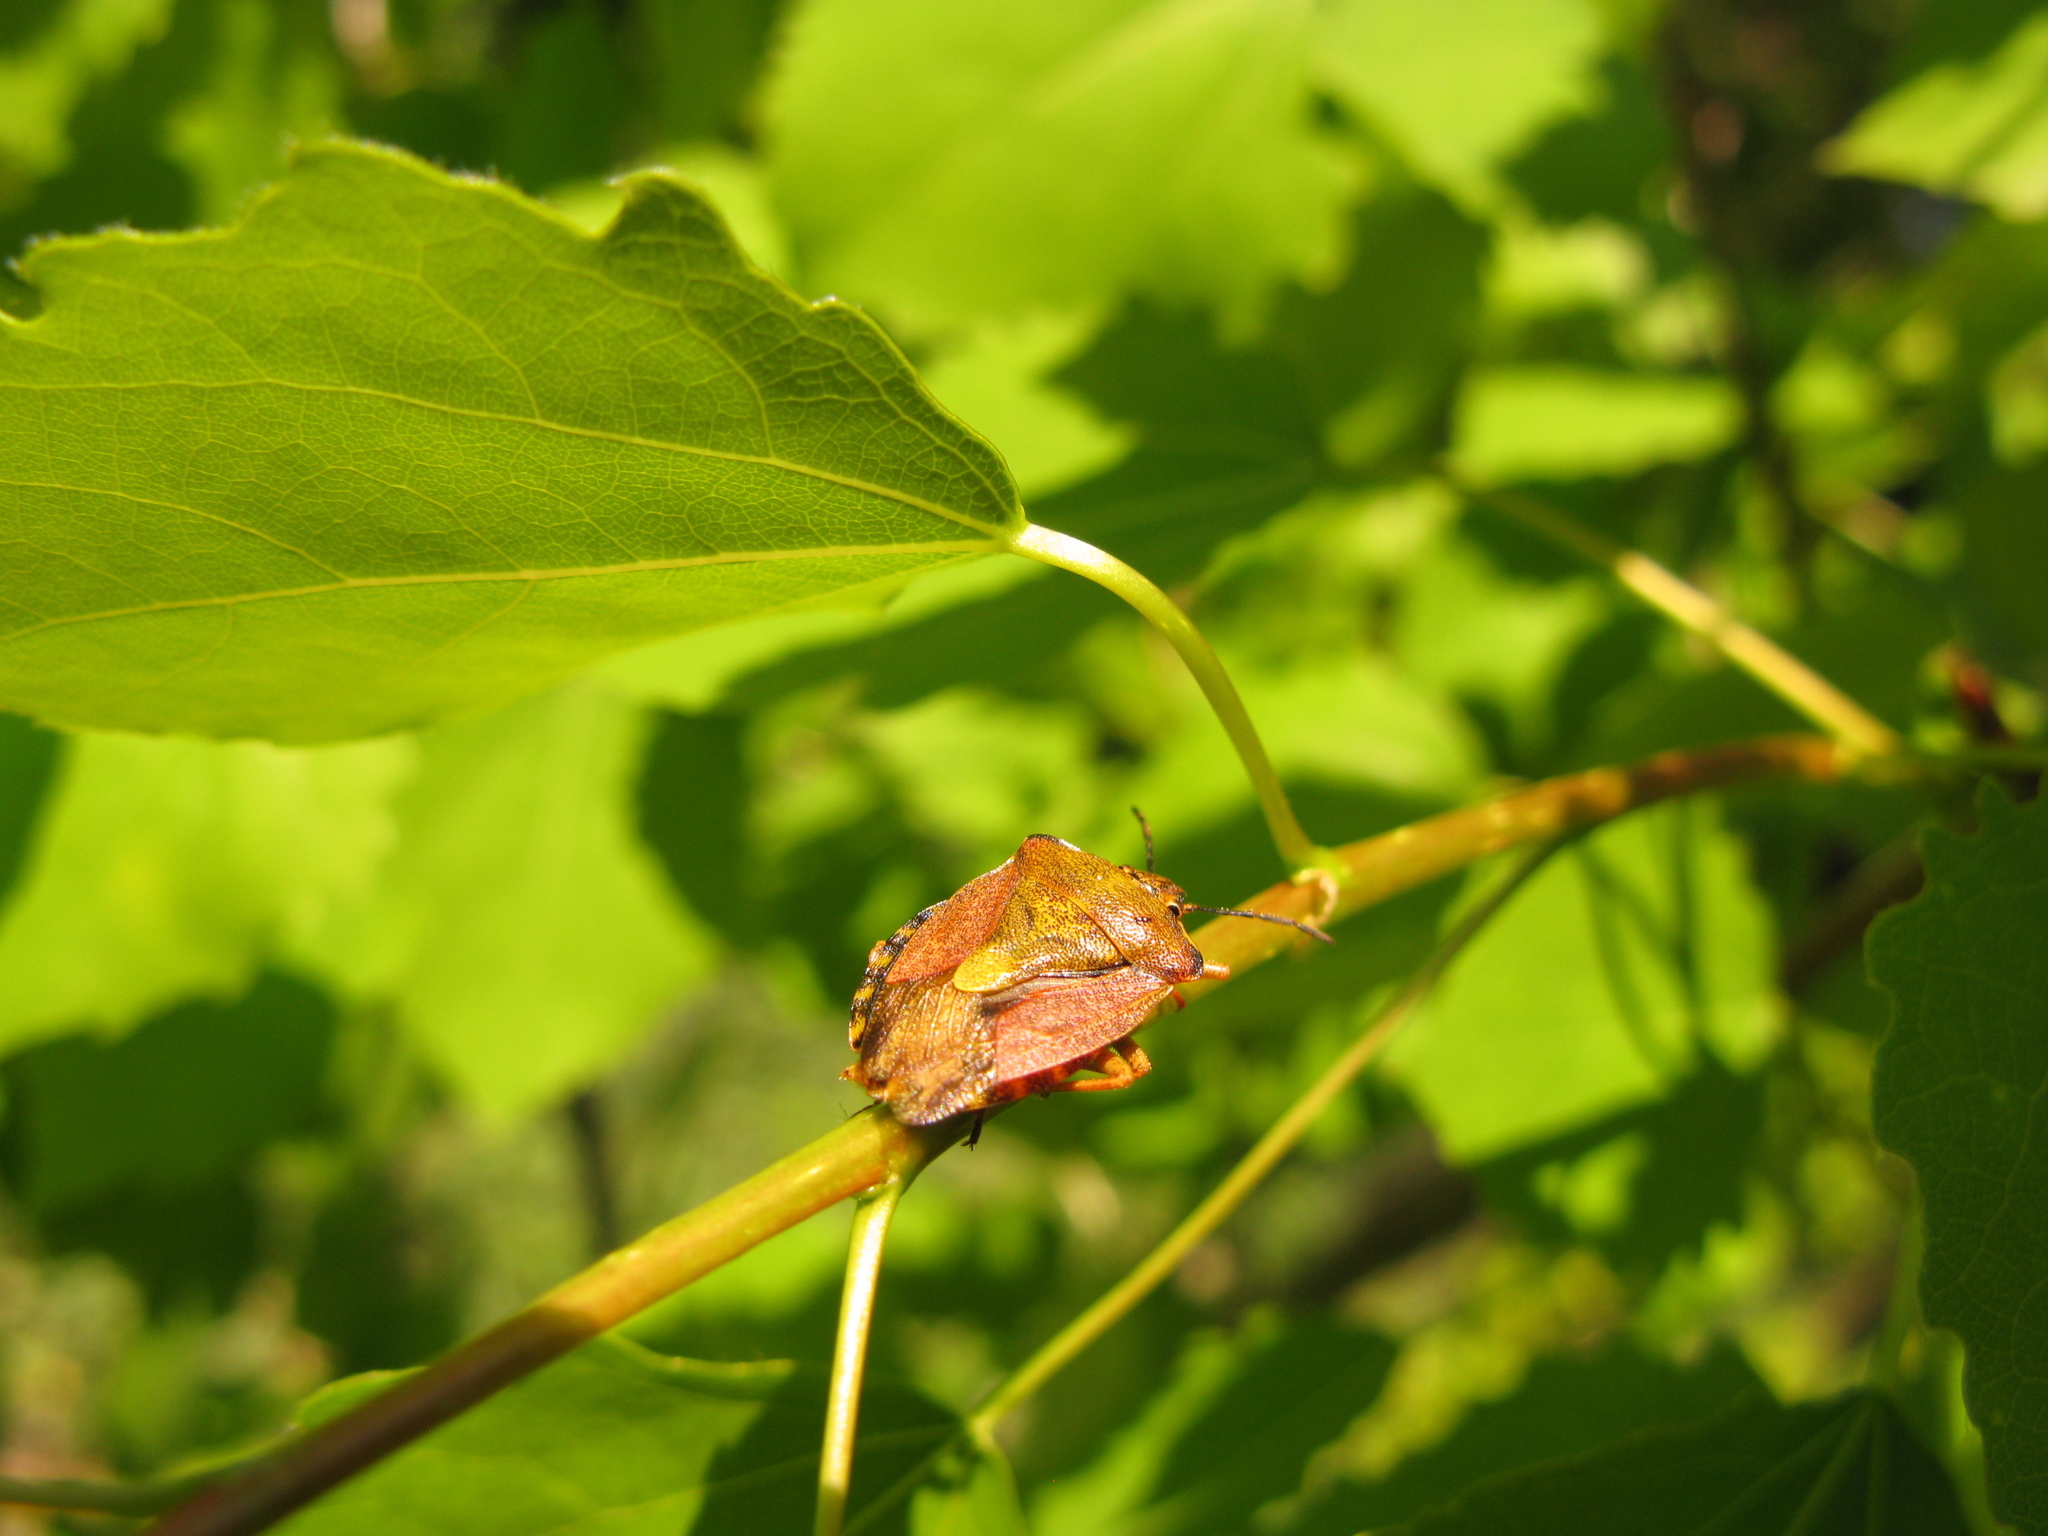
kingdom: Animalia
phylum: Arthropoda
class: Insecta
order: Hemiptera
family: Pentatomidae
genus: Carpocoris
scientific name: Carpocoris purpureipennis
